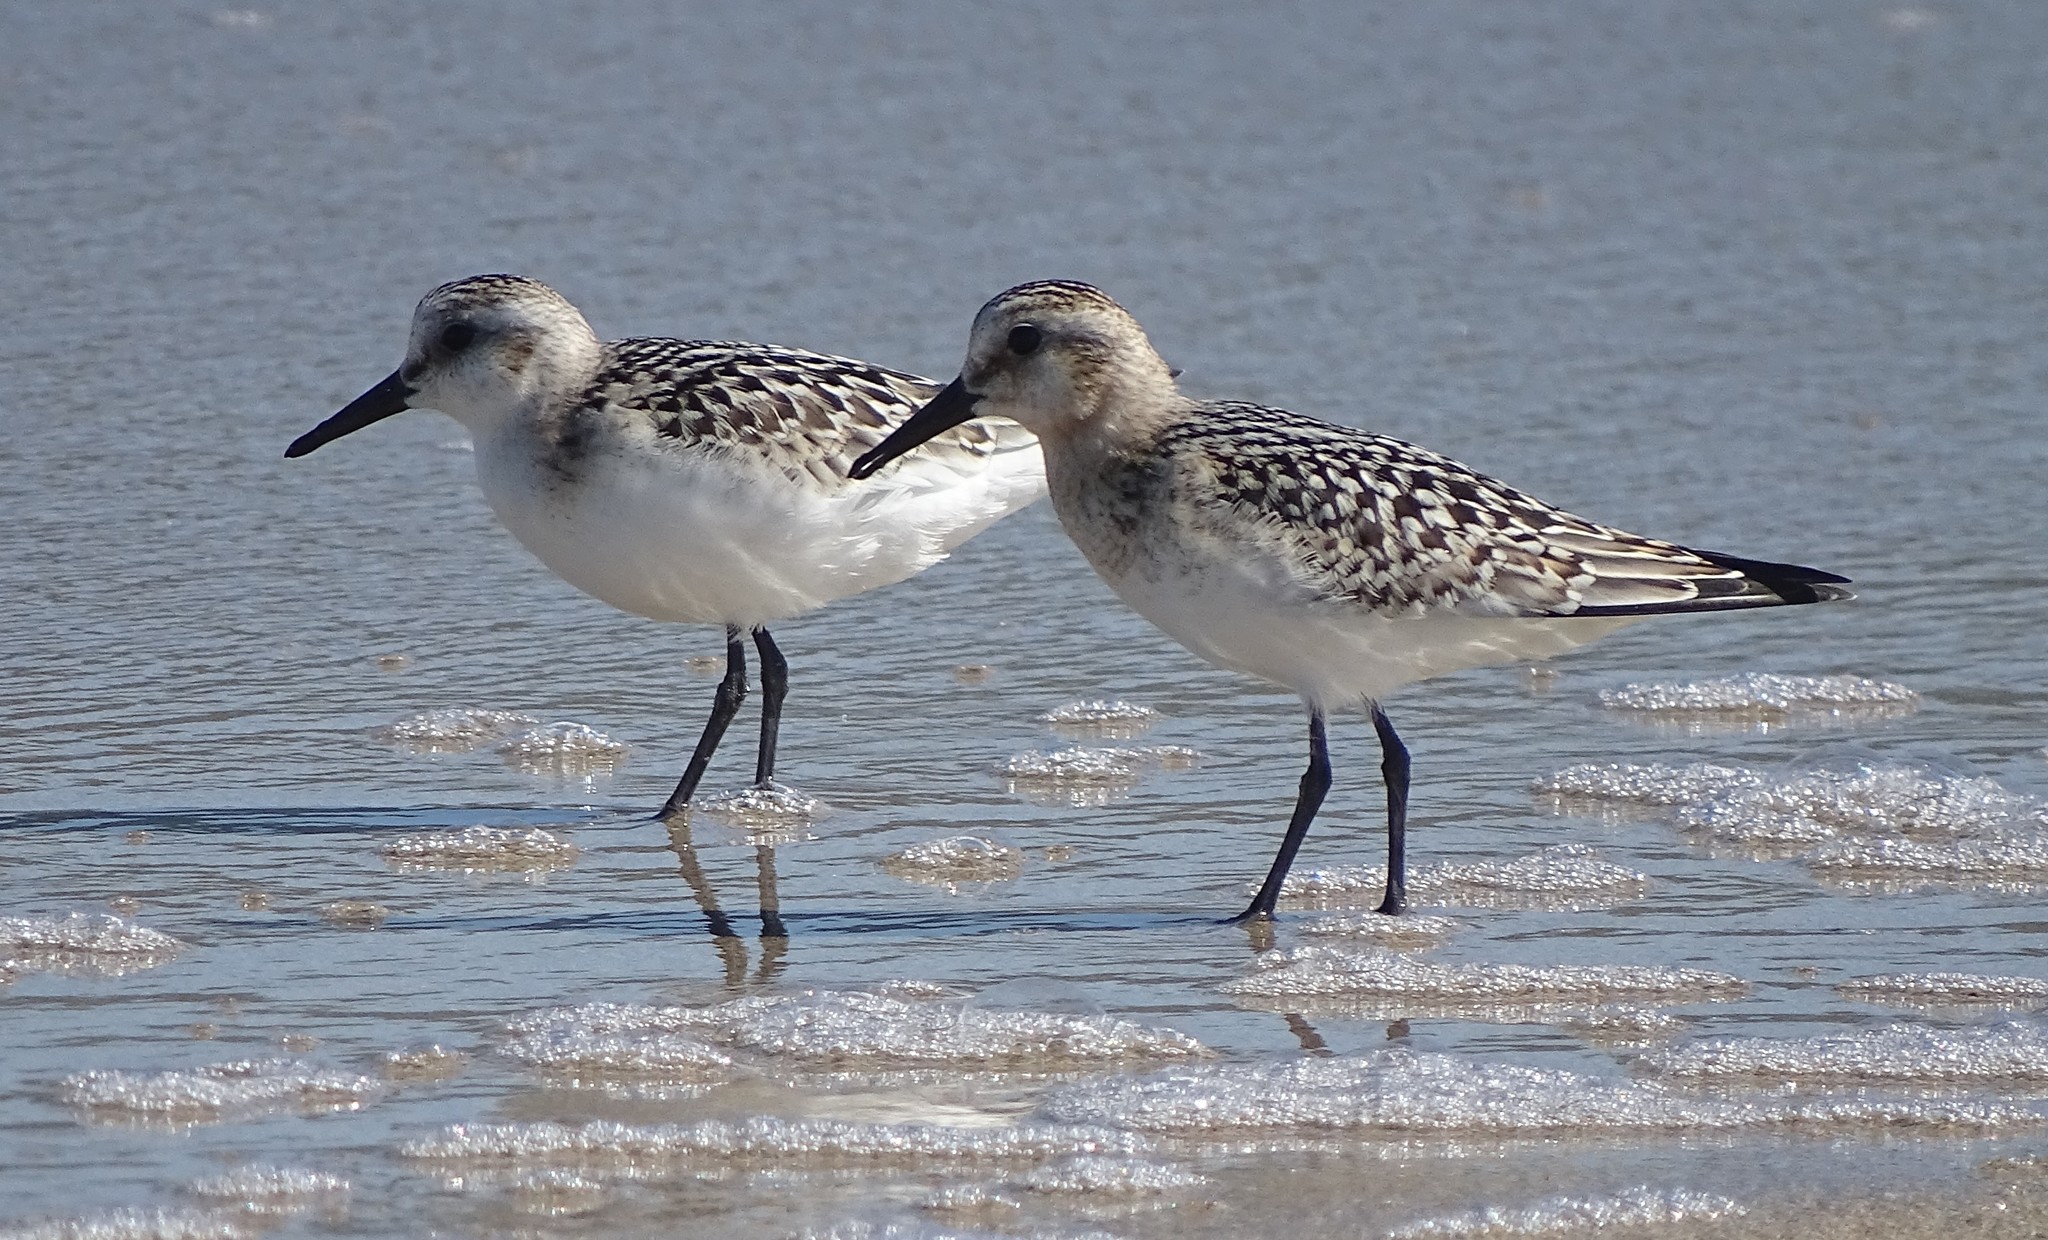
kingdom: Animalia
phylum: Chordata
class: Aves
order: Charadriiformes
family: Scolopacidae
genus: Calidris
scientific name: Calidris alba
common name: Sanderling
